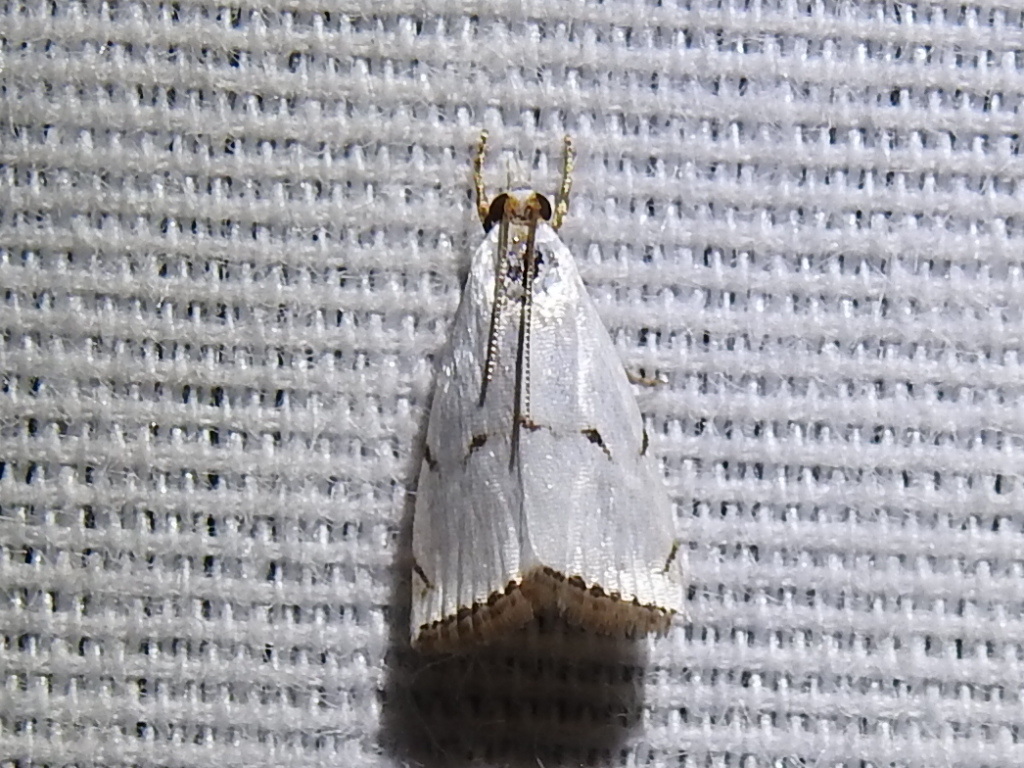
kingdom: Animalia
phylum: Arthropoda
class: Insecta
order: Lepidoptera
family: Crambidae
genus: Argyria
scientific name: Argyria pusillalis
